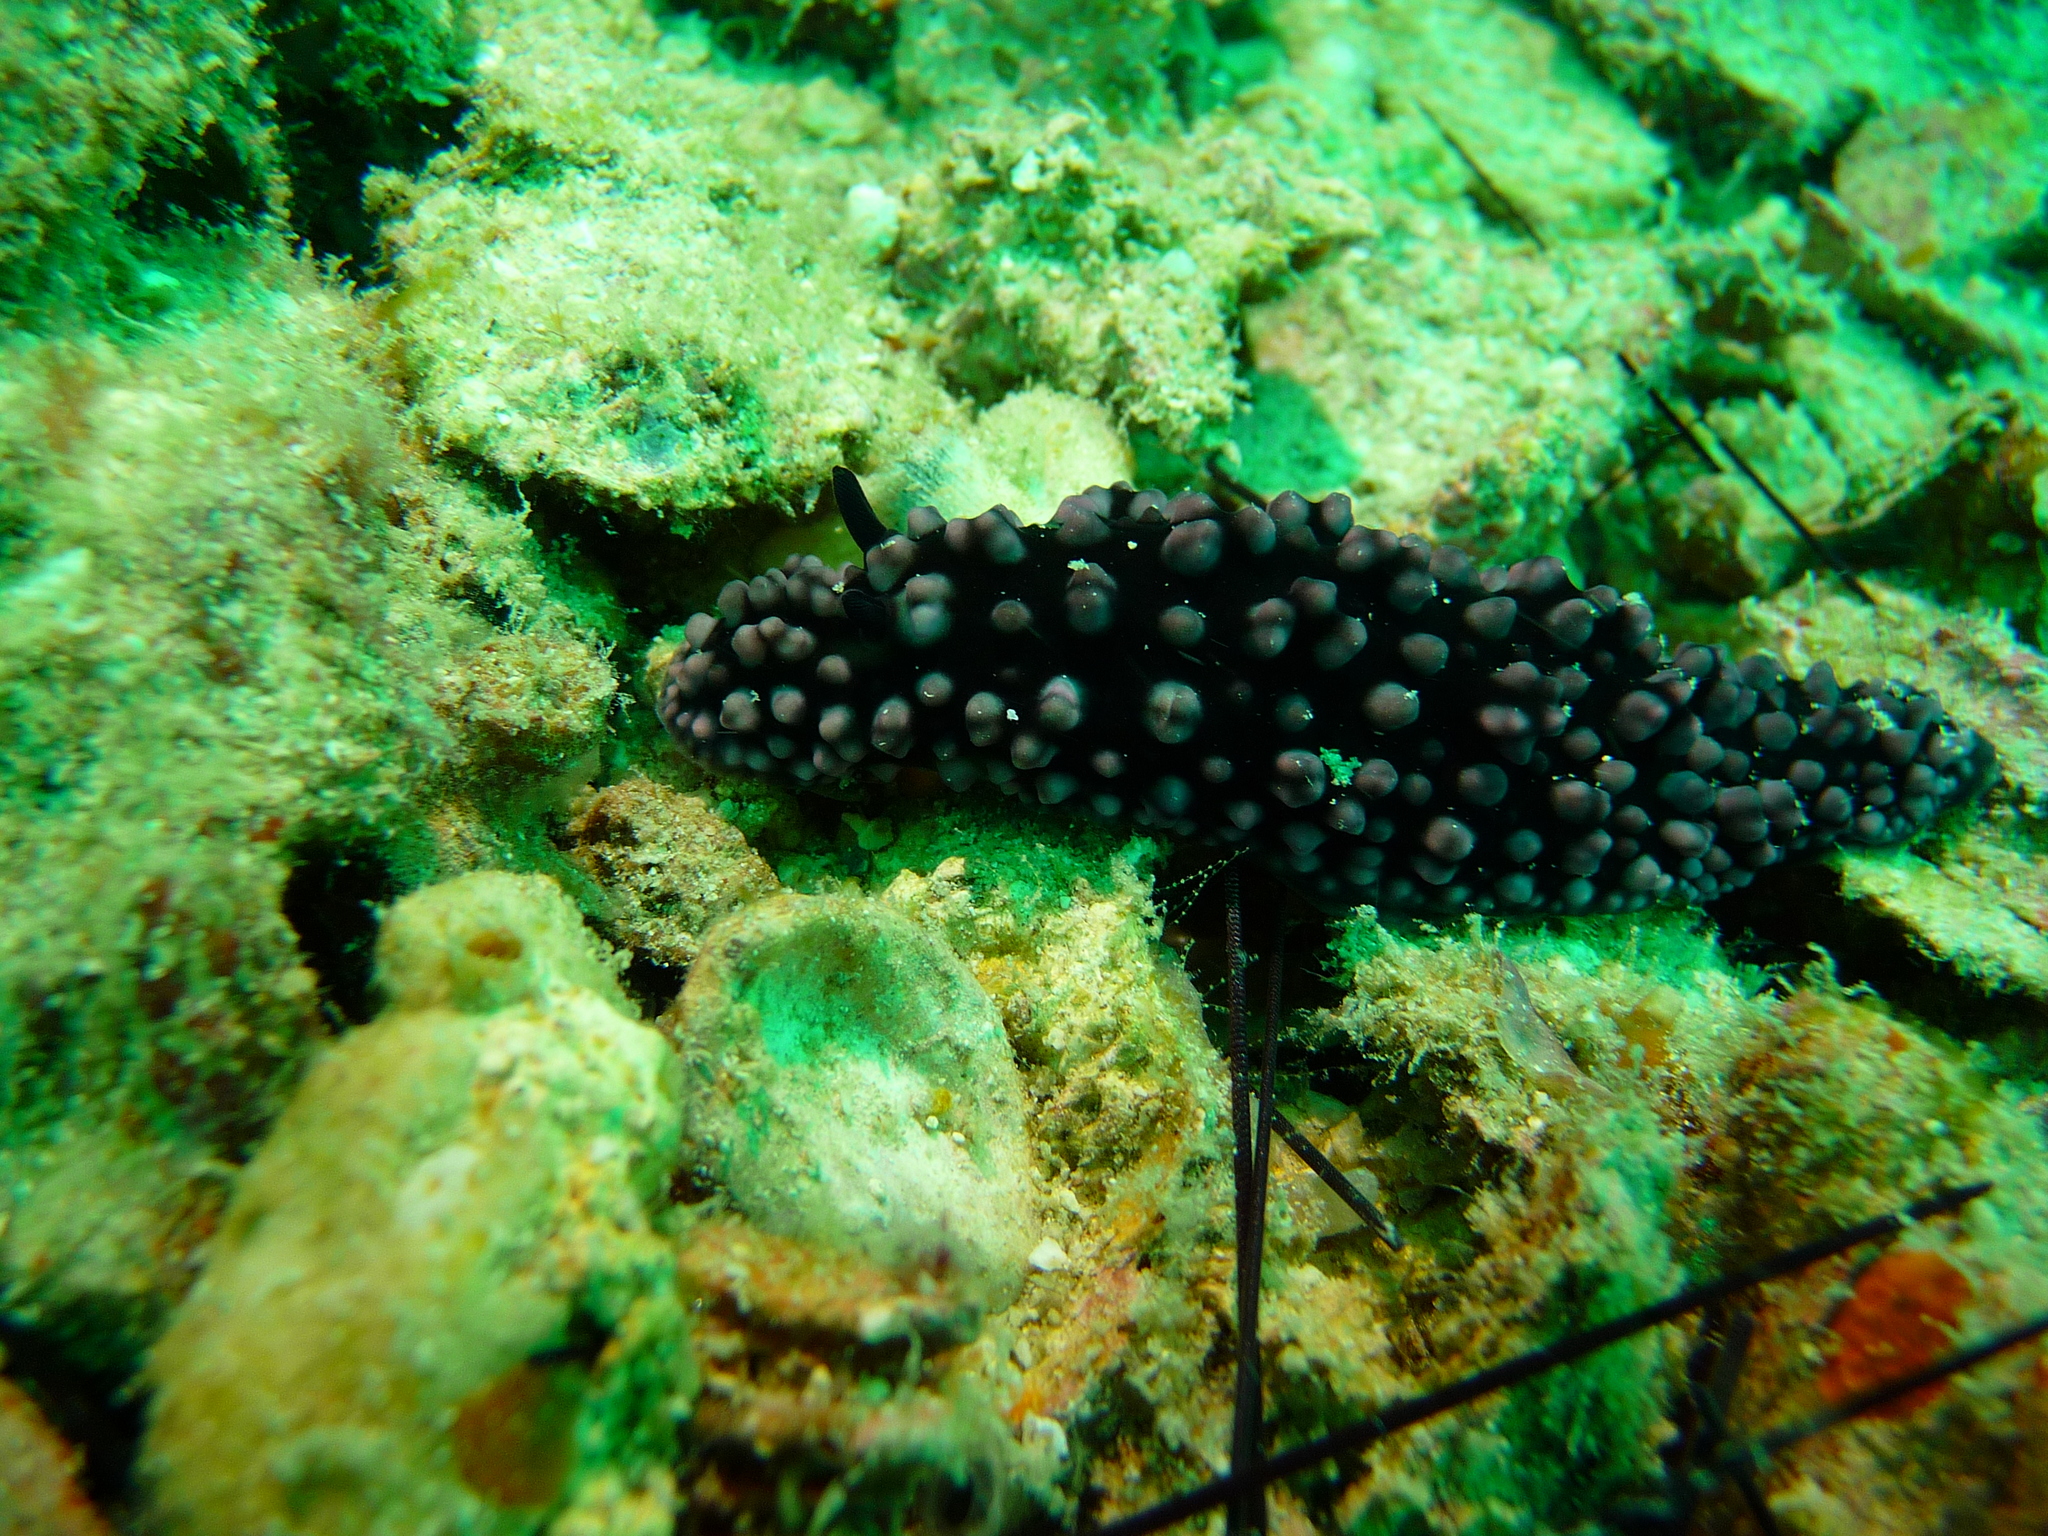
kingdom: Animalia
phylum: Mollusca
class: Gastropoda
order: Nudibranchia
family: Phyllidiidae
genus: Phyllidiella
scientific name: Phyllidiella nigra
